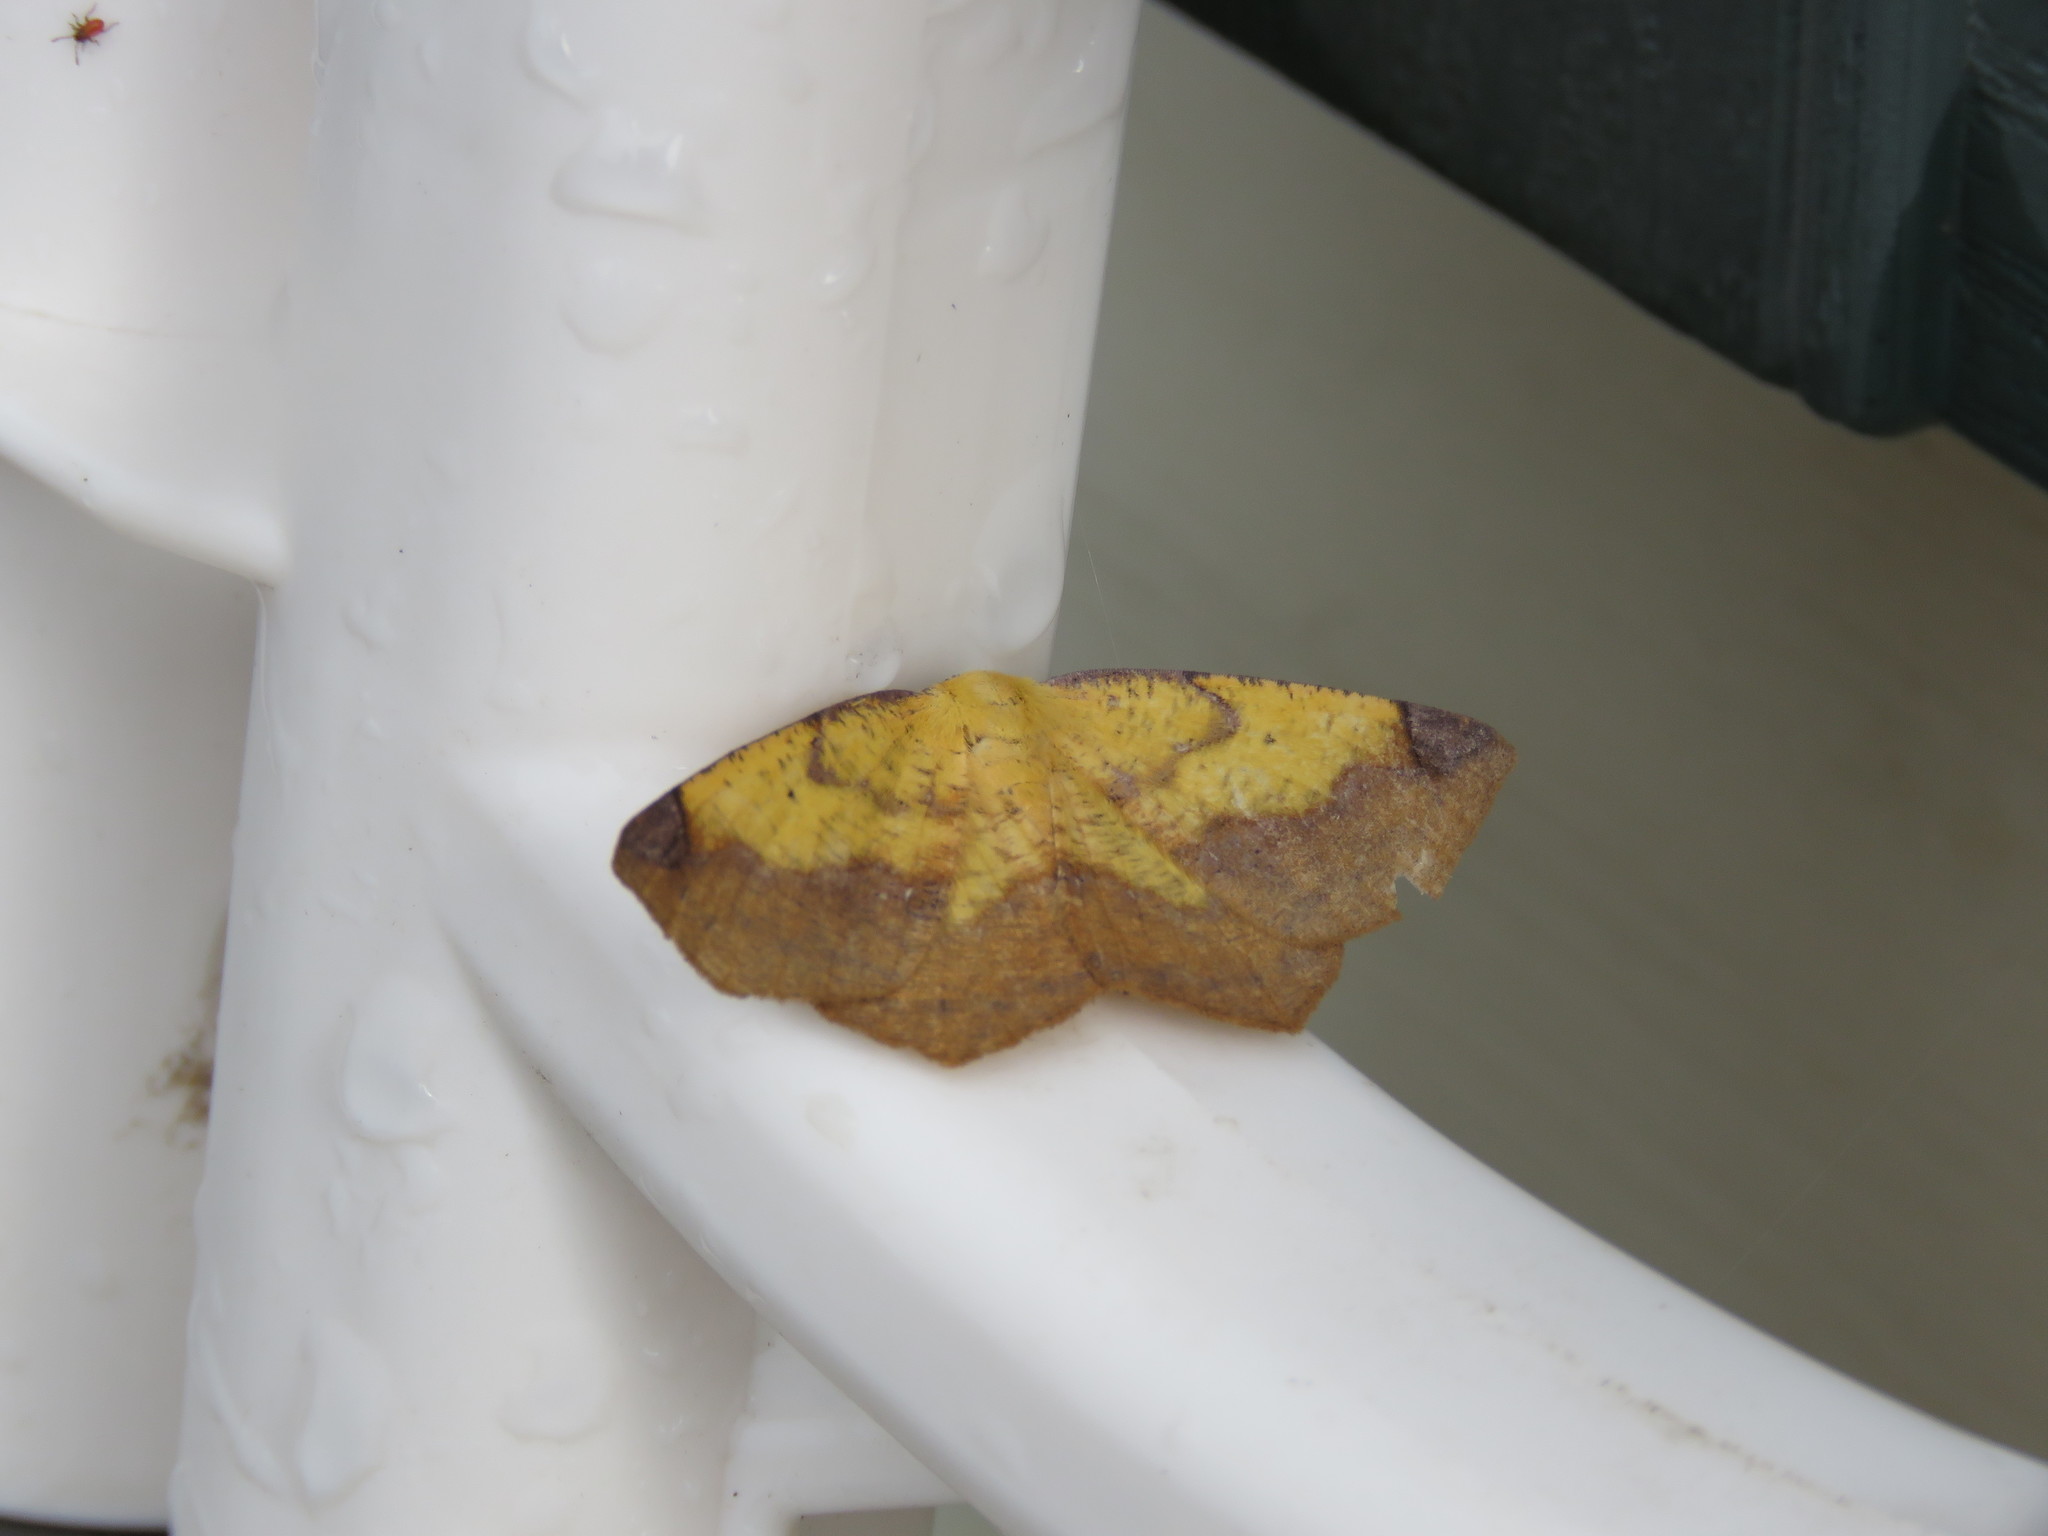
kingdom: Animalia
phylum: Arthropoda
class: Insecta
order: Lepidoptera
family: Geometridae
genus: Antepione
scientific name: Antepione thisoaria
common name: Variable antipione
